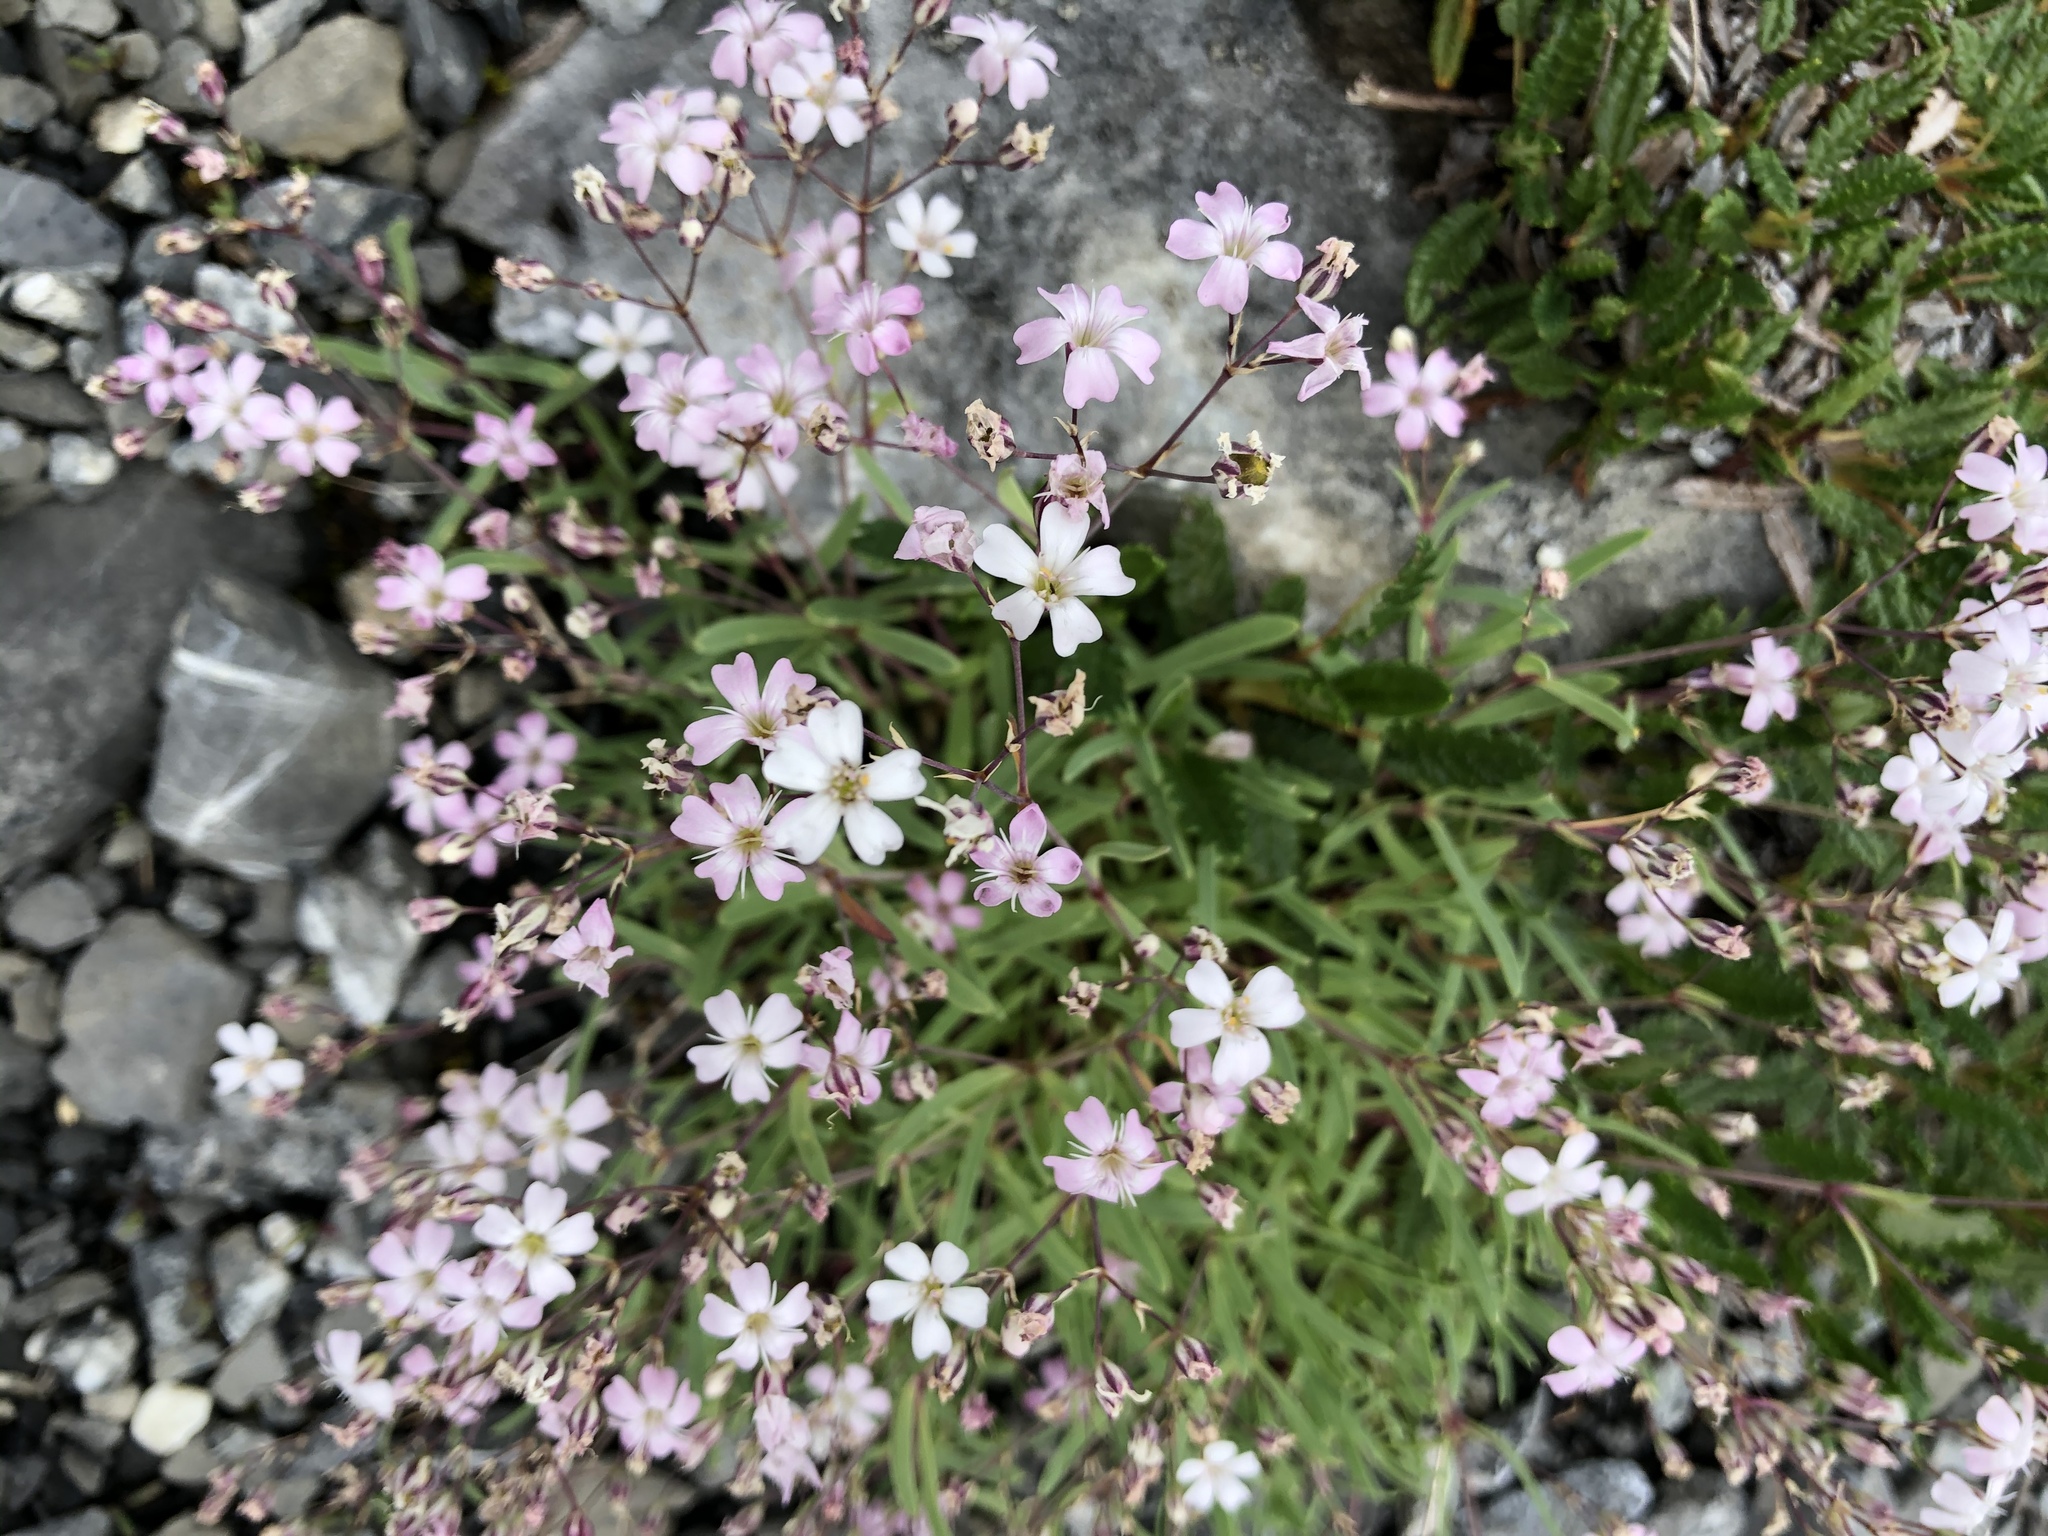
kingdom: Plantae
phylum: Tracheophyta
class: Magnoliopsida
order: Caryophyllales
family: Caryophyllaceae
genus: Gypsophila
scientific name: Gypsophila repens
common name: Creeping baby's-breath
